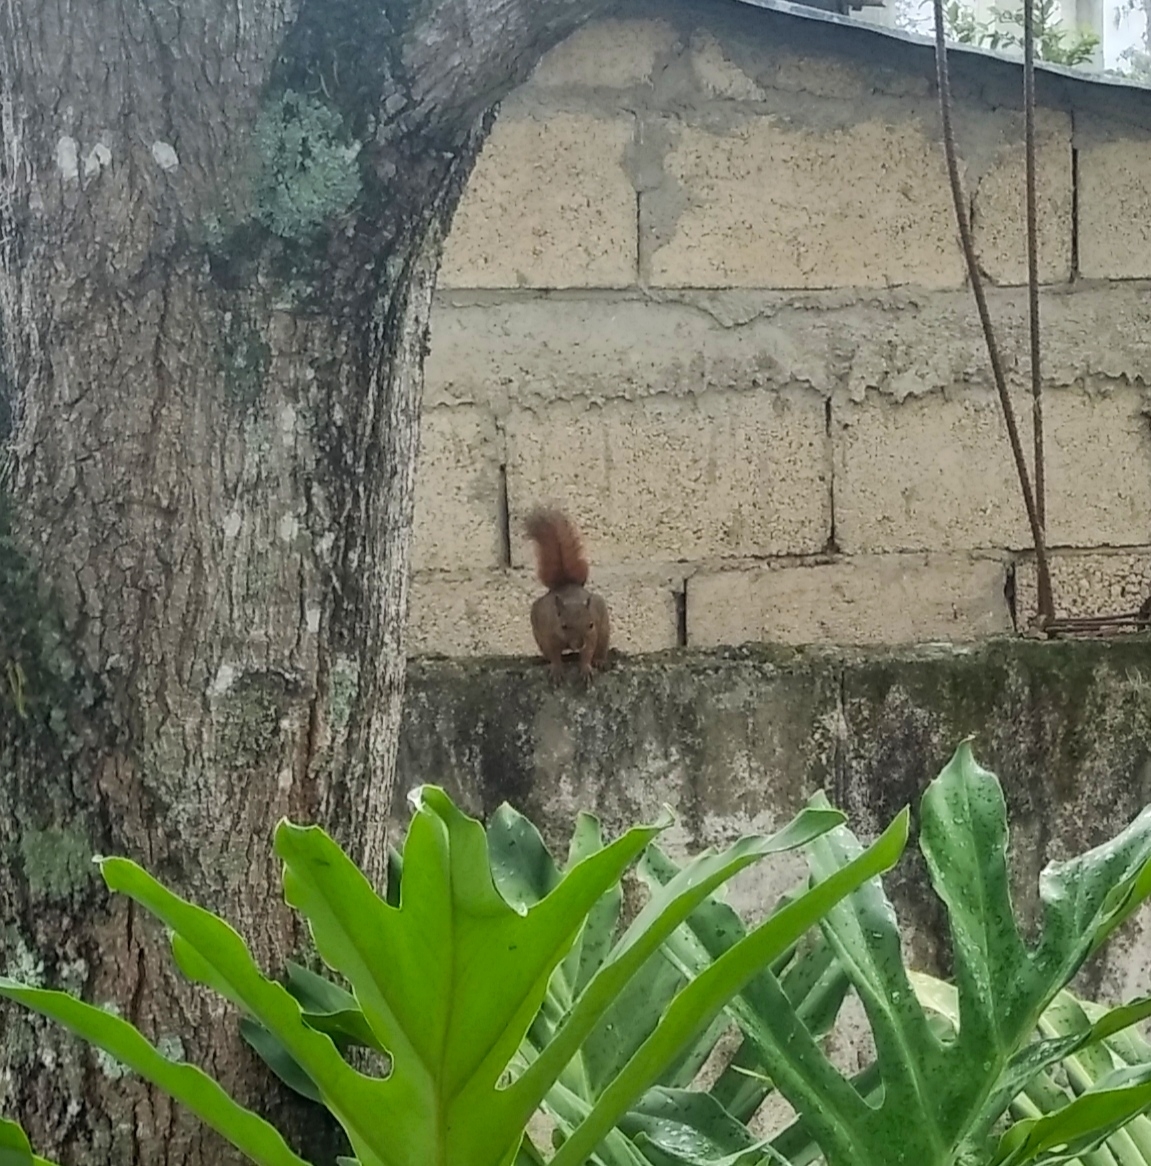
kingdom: Animalia
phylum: Chordata
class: Mammalia
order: Rodentia
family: Sciuridae
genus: Sciurus
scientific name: Sciurus granatensis
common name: Red-tailed squirrel
